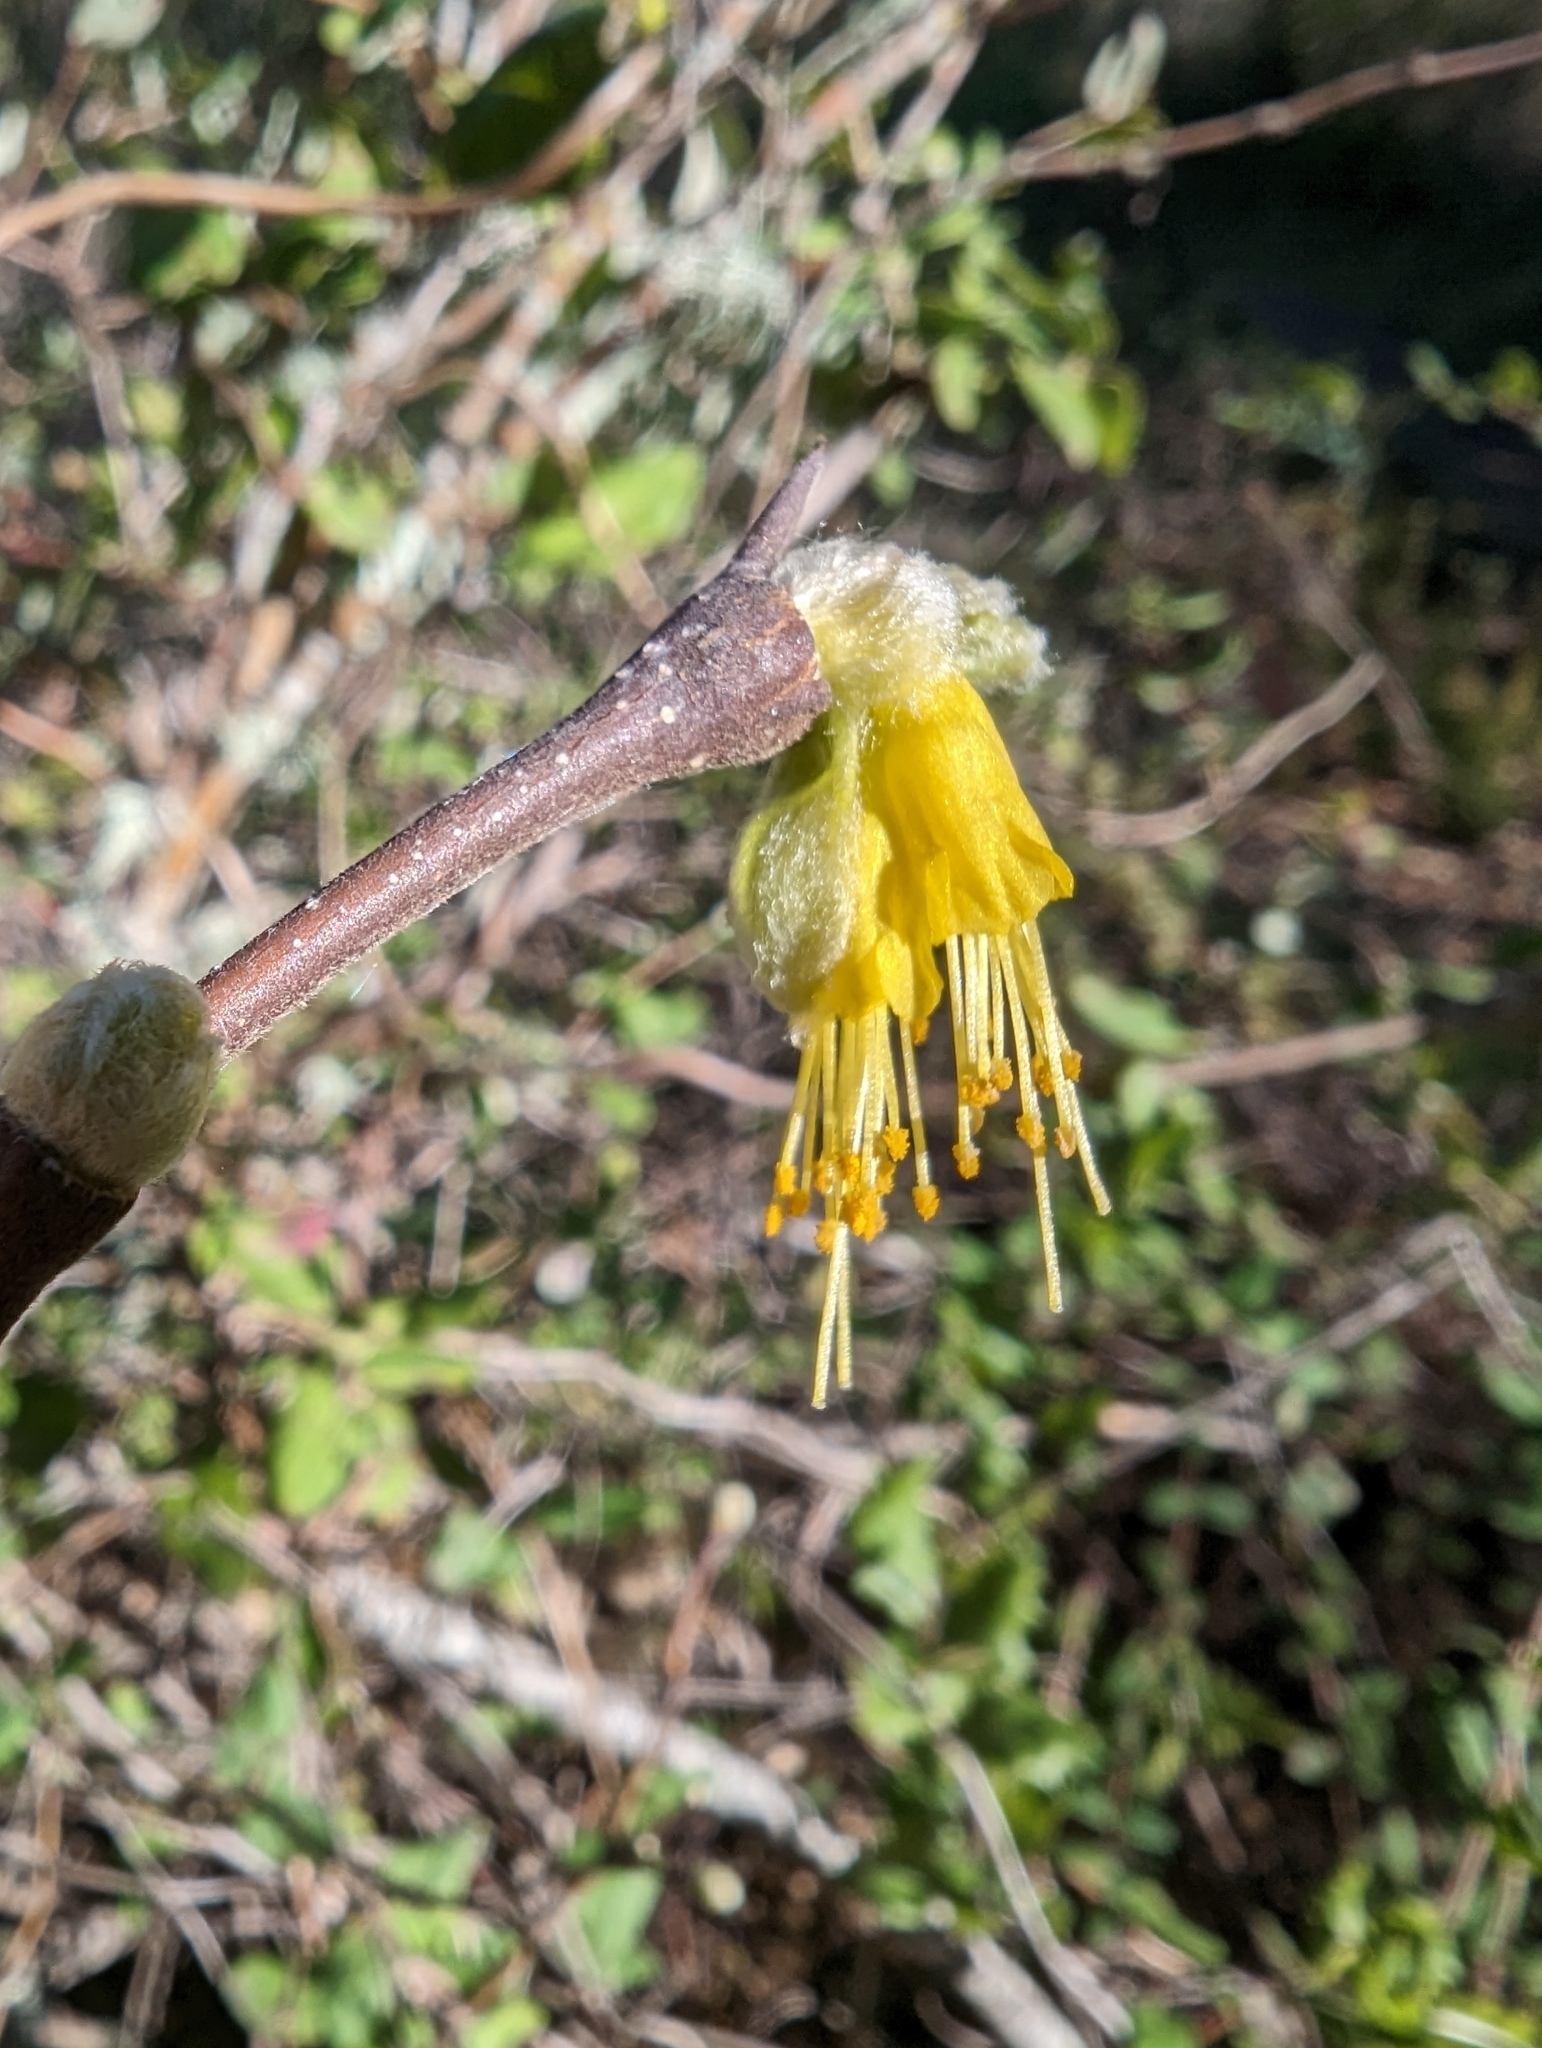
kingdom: Plantae
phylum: Tracheophyta
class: Magnoliopsida
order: Malvales
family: Thymelaeaceae
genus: Dirca
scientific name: Dirca occidentalis
